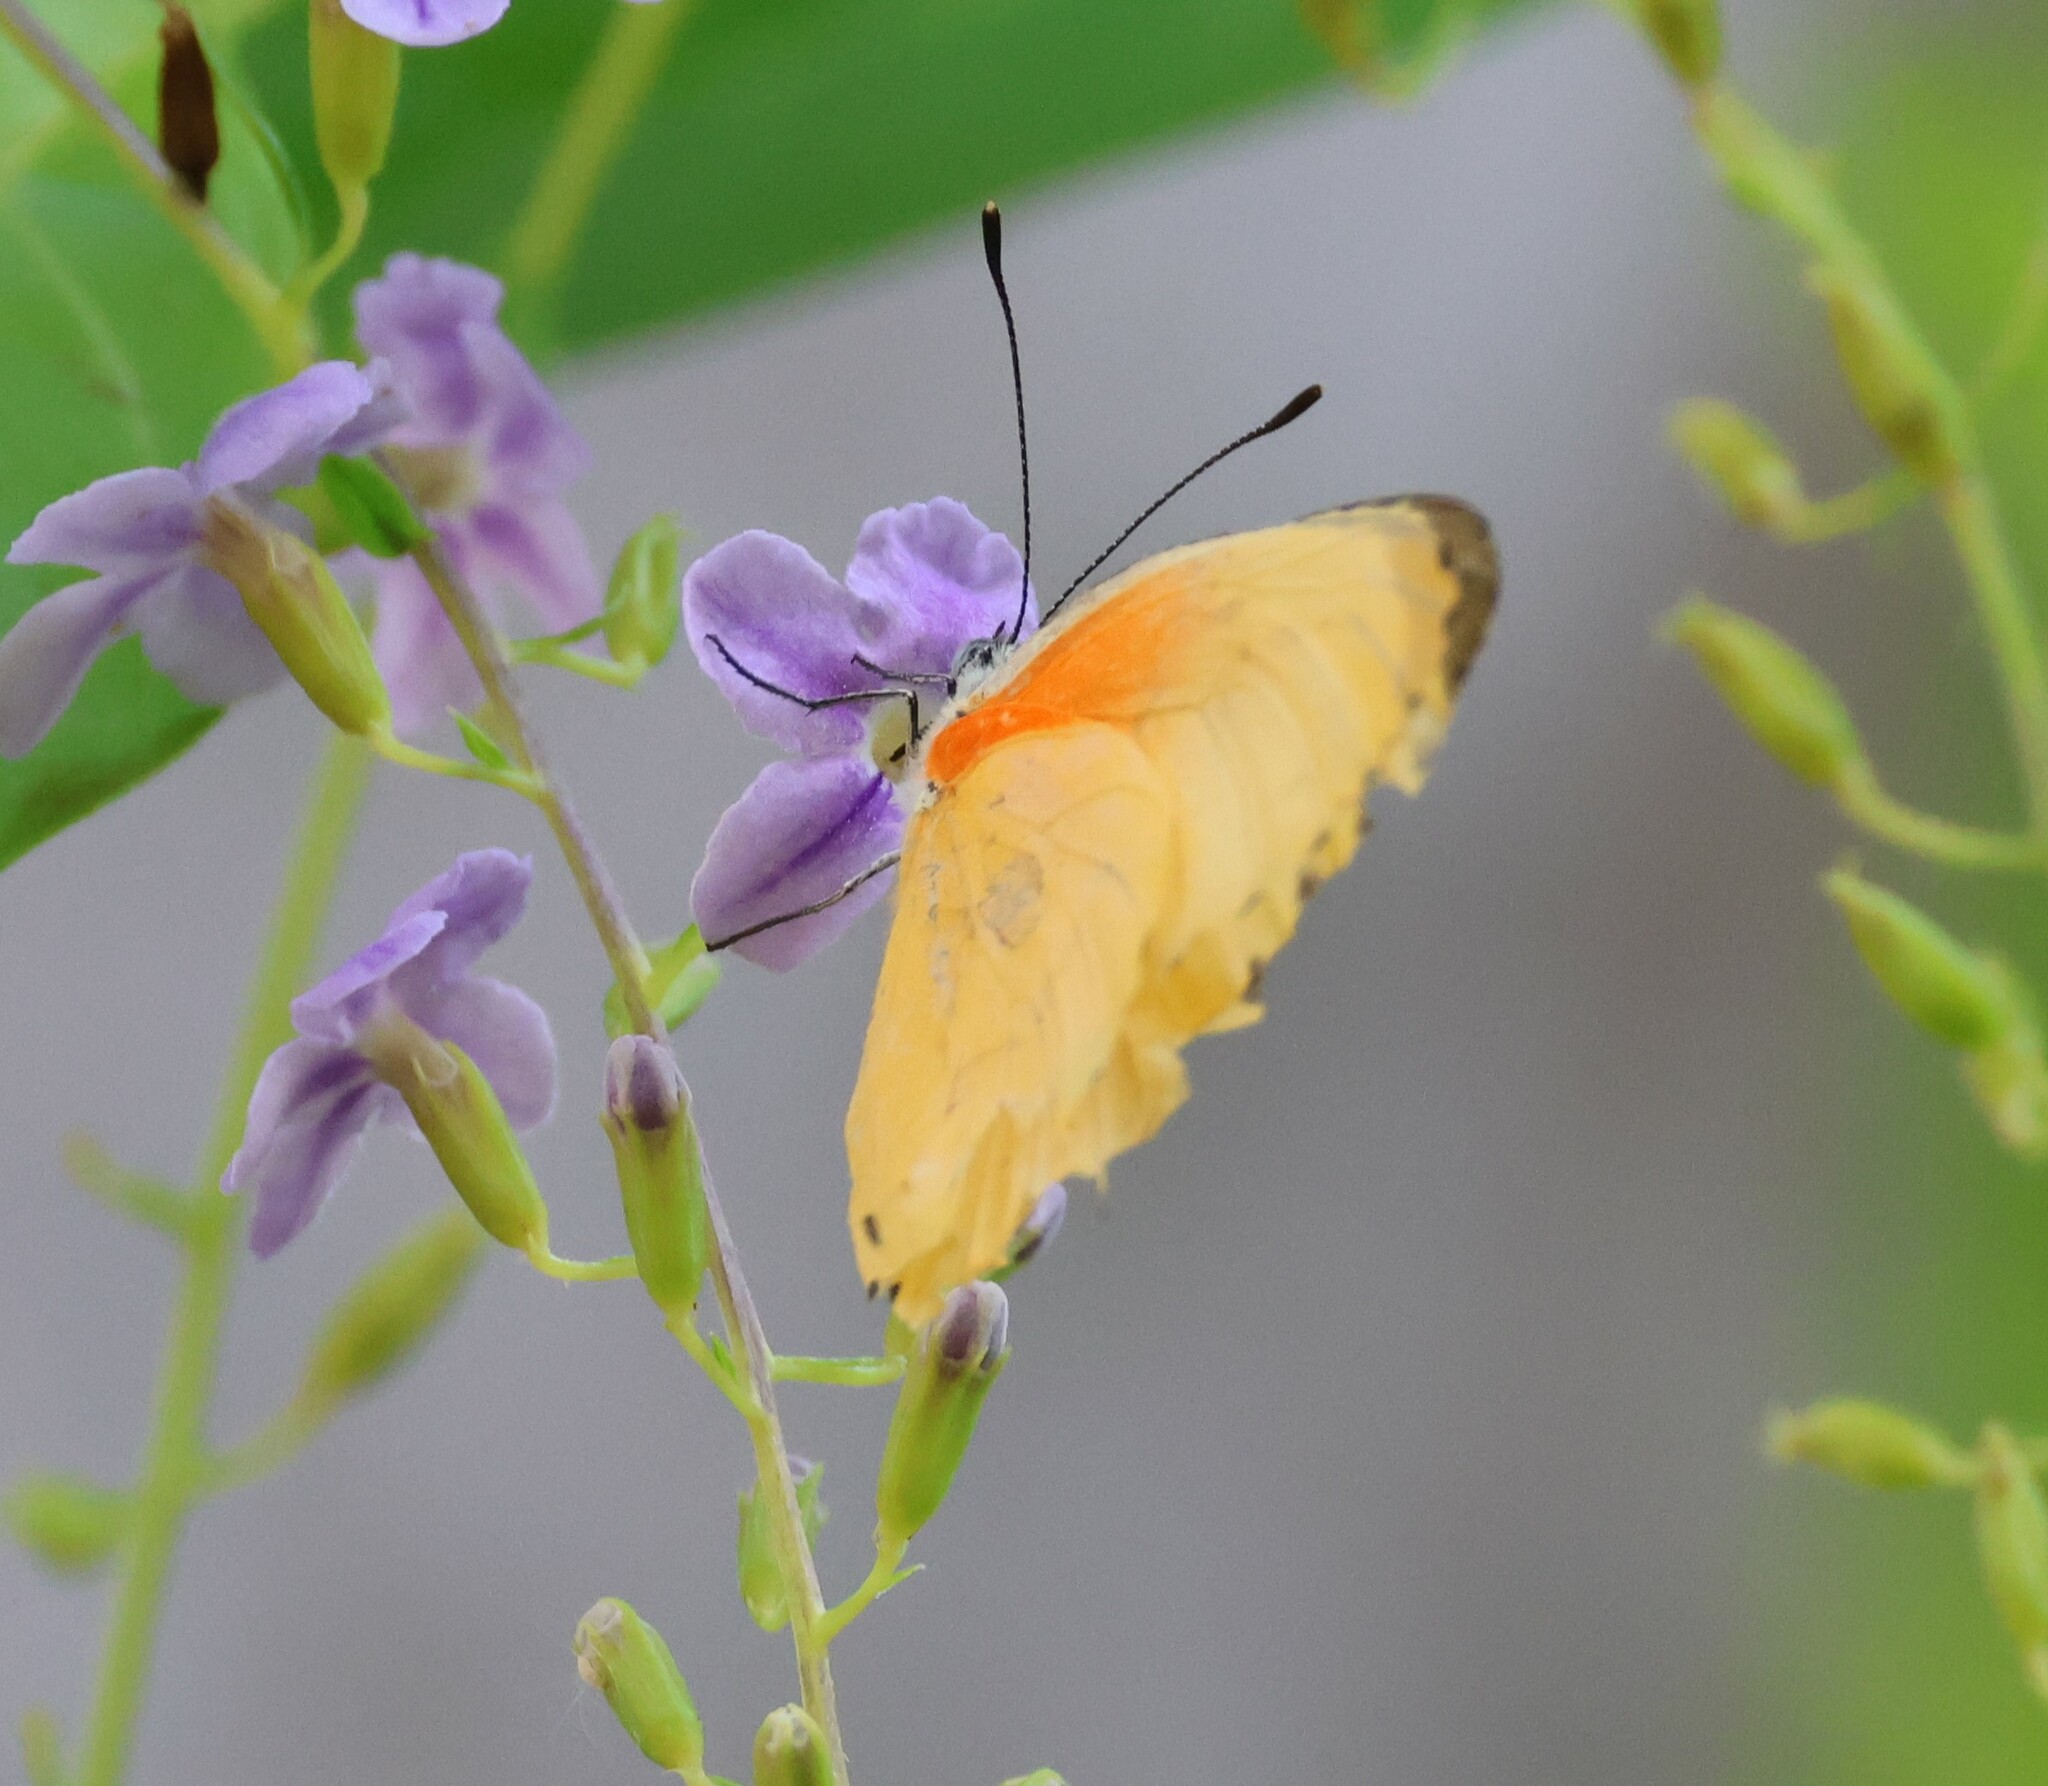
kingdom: Animalia
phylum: Arthropoda
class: Insecta
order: Lepidoptera
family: Pieridae
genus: Mylothris
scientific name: Mylothris agathina
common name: Eastern dotted border
